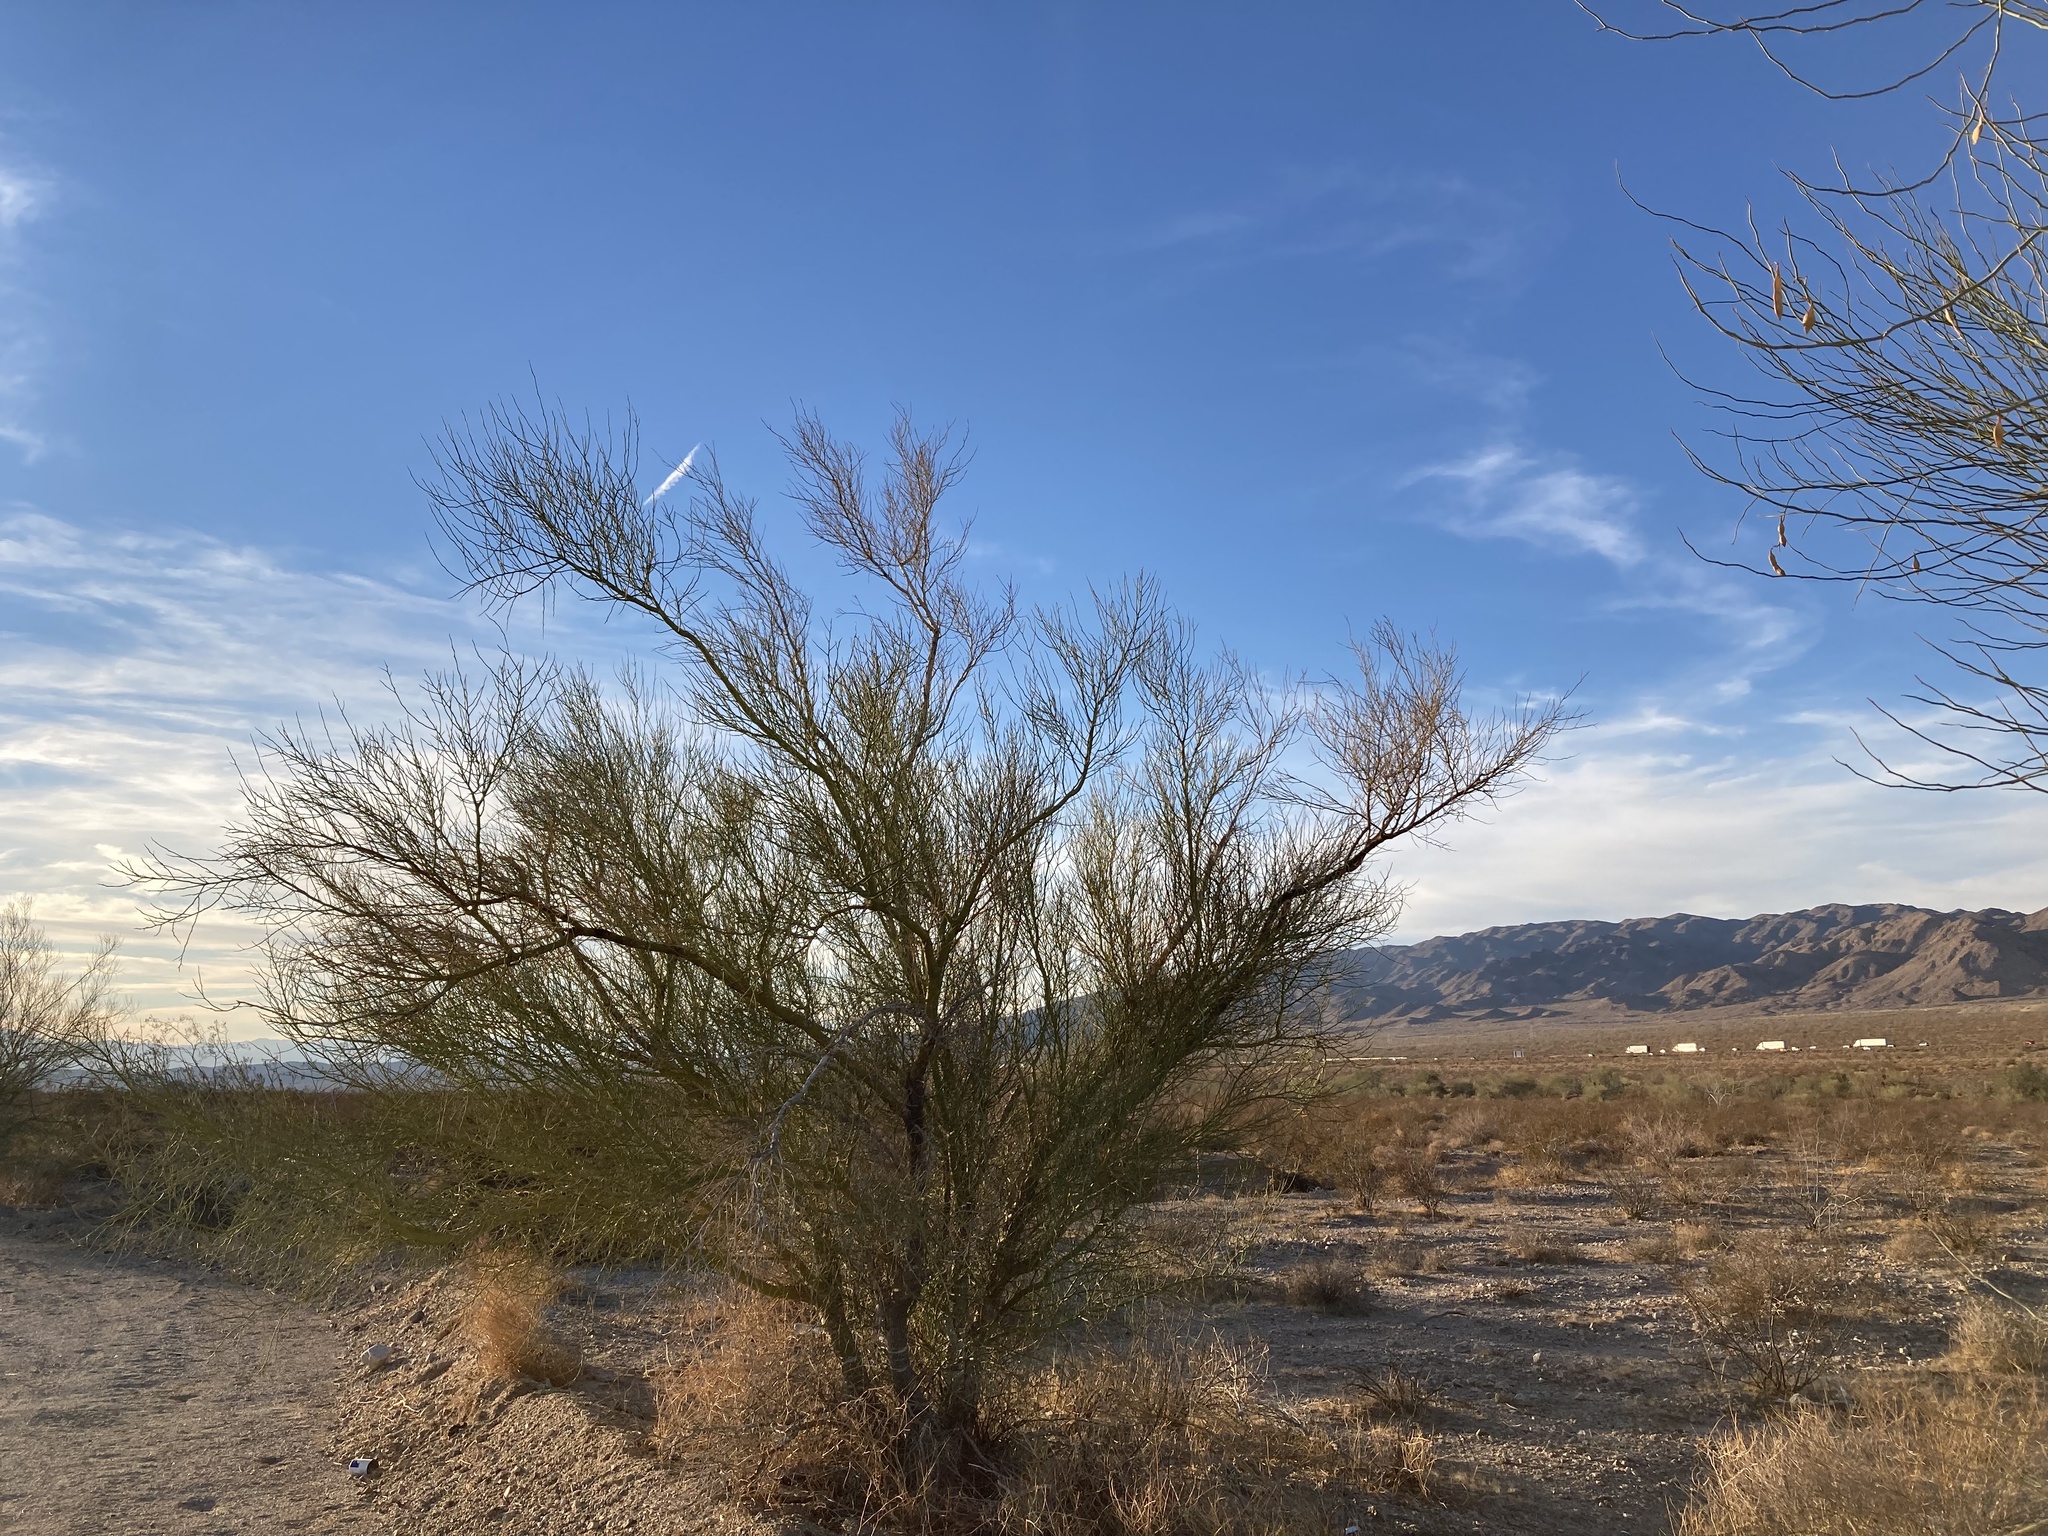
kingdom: Plantae
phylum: Tracheophyta
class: Magnoliopsida
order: Fabales
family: Fabaceae
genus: Parkinsonia
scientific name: Parkinsonia florida
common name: Blue paloverde
